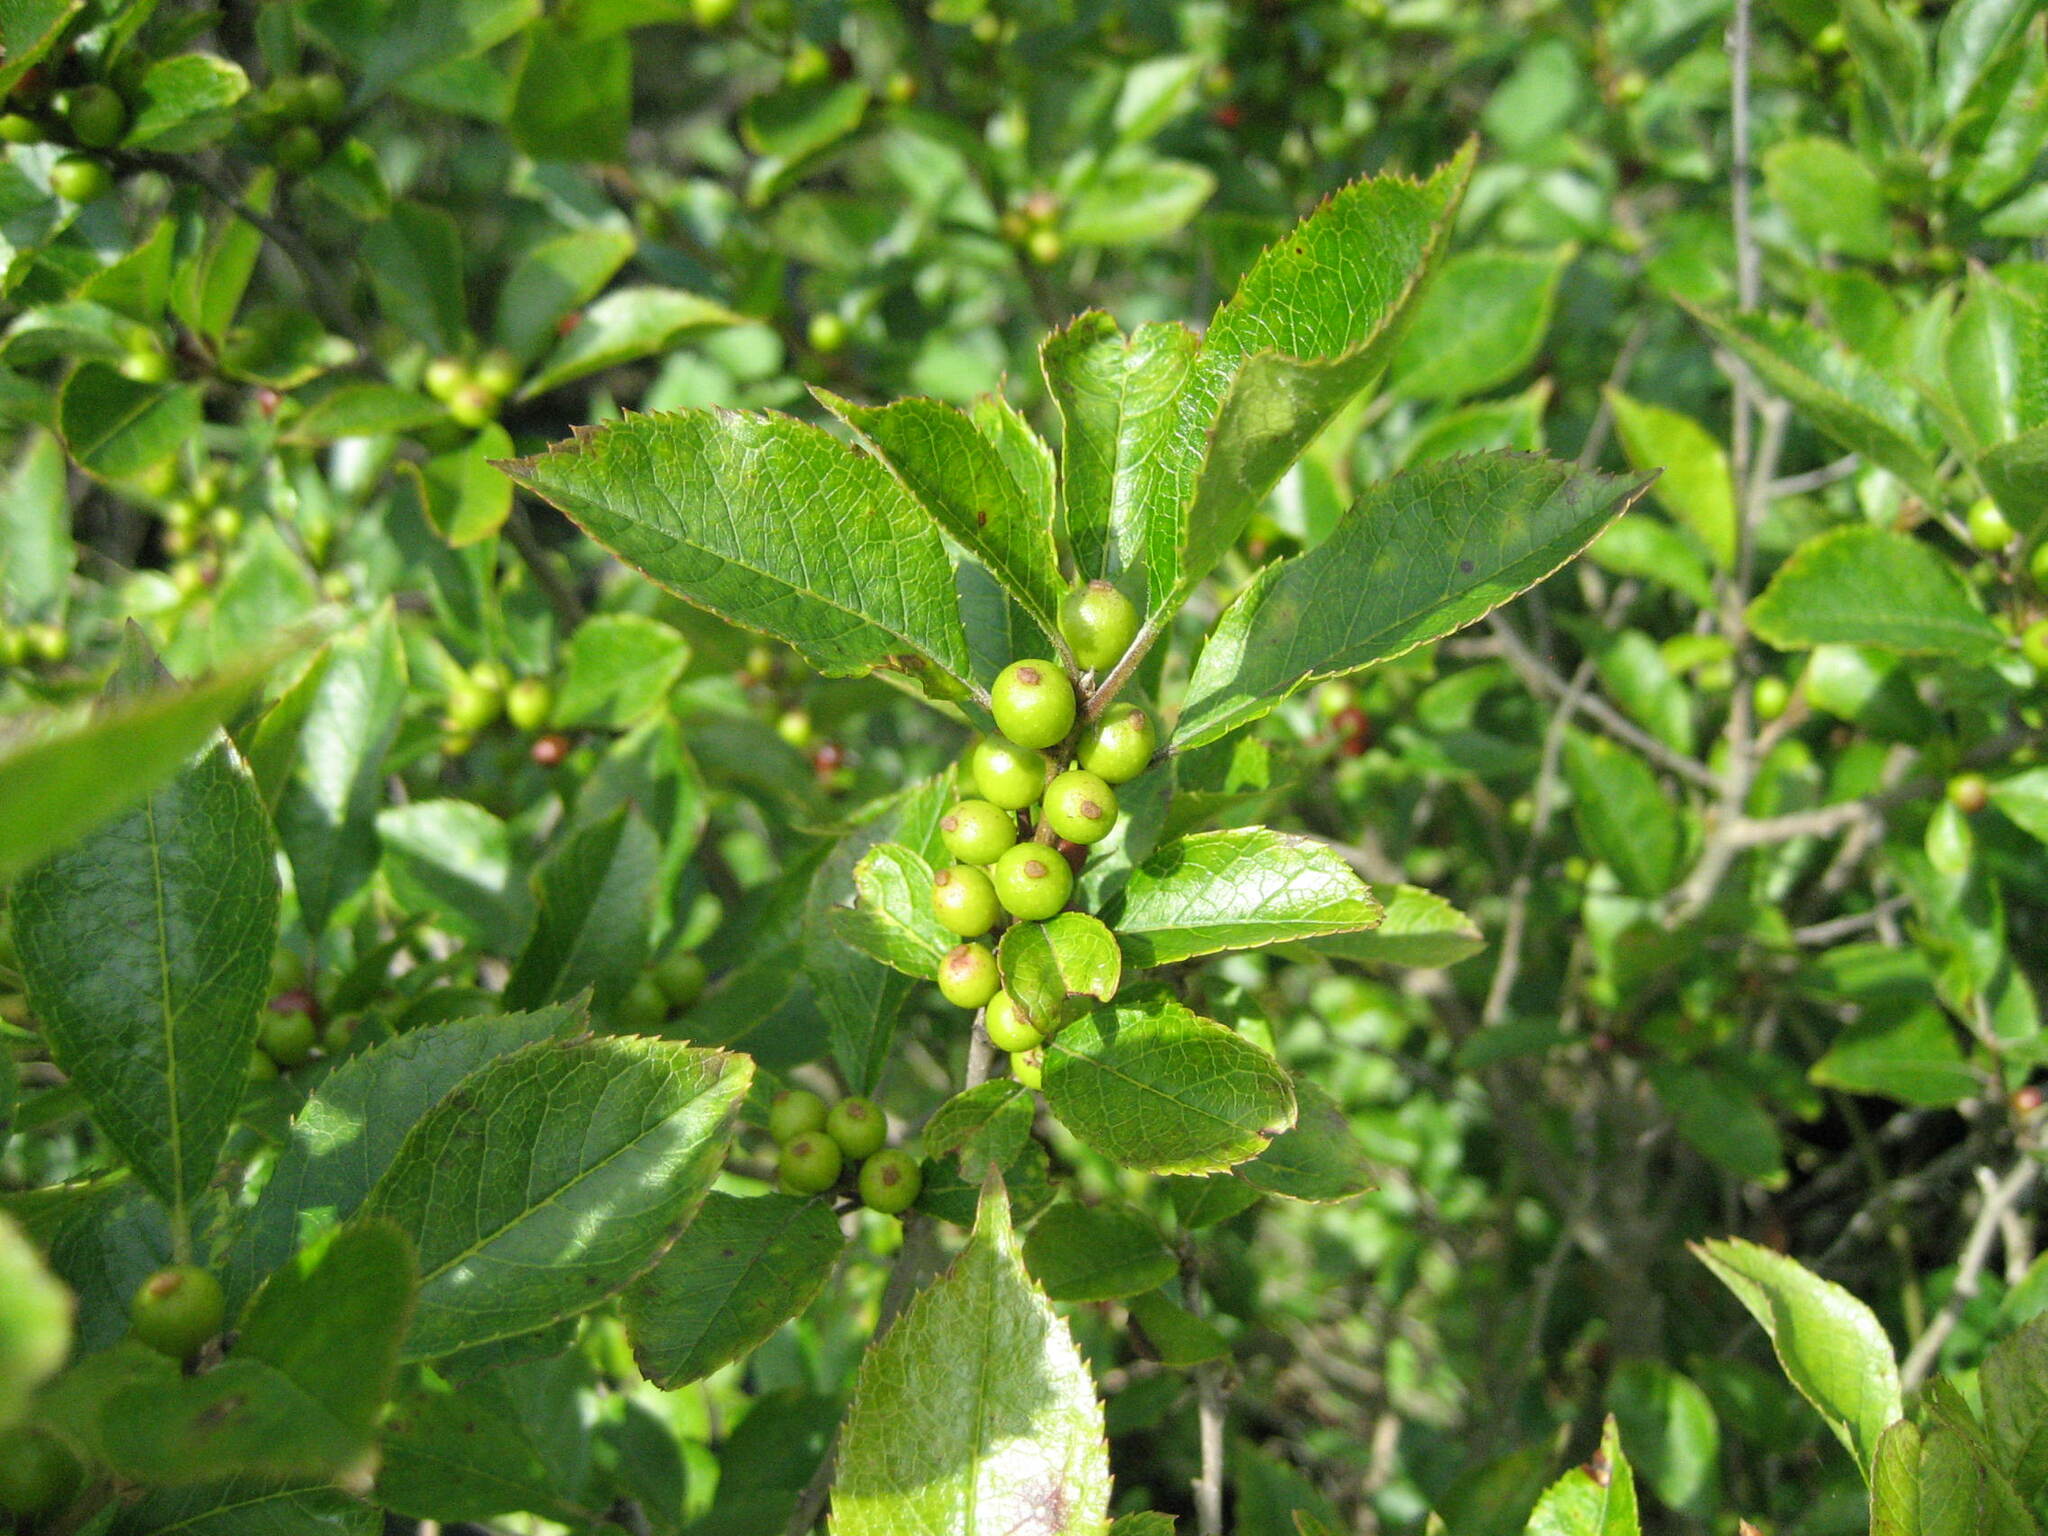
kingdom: Plantae
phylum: Tracheophyta
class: Magnoliopsida
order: Aquifoliales
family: Aquifoliaceae
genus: Ilex
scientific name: Ilex verticillata
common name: Virginia winterberry
